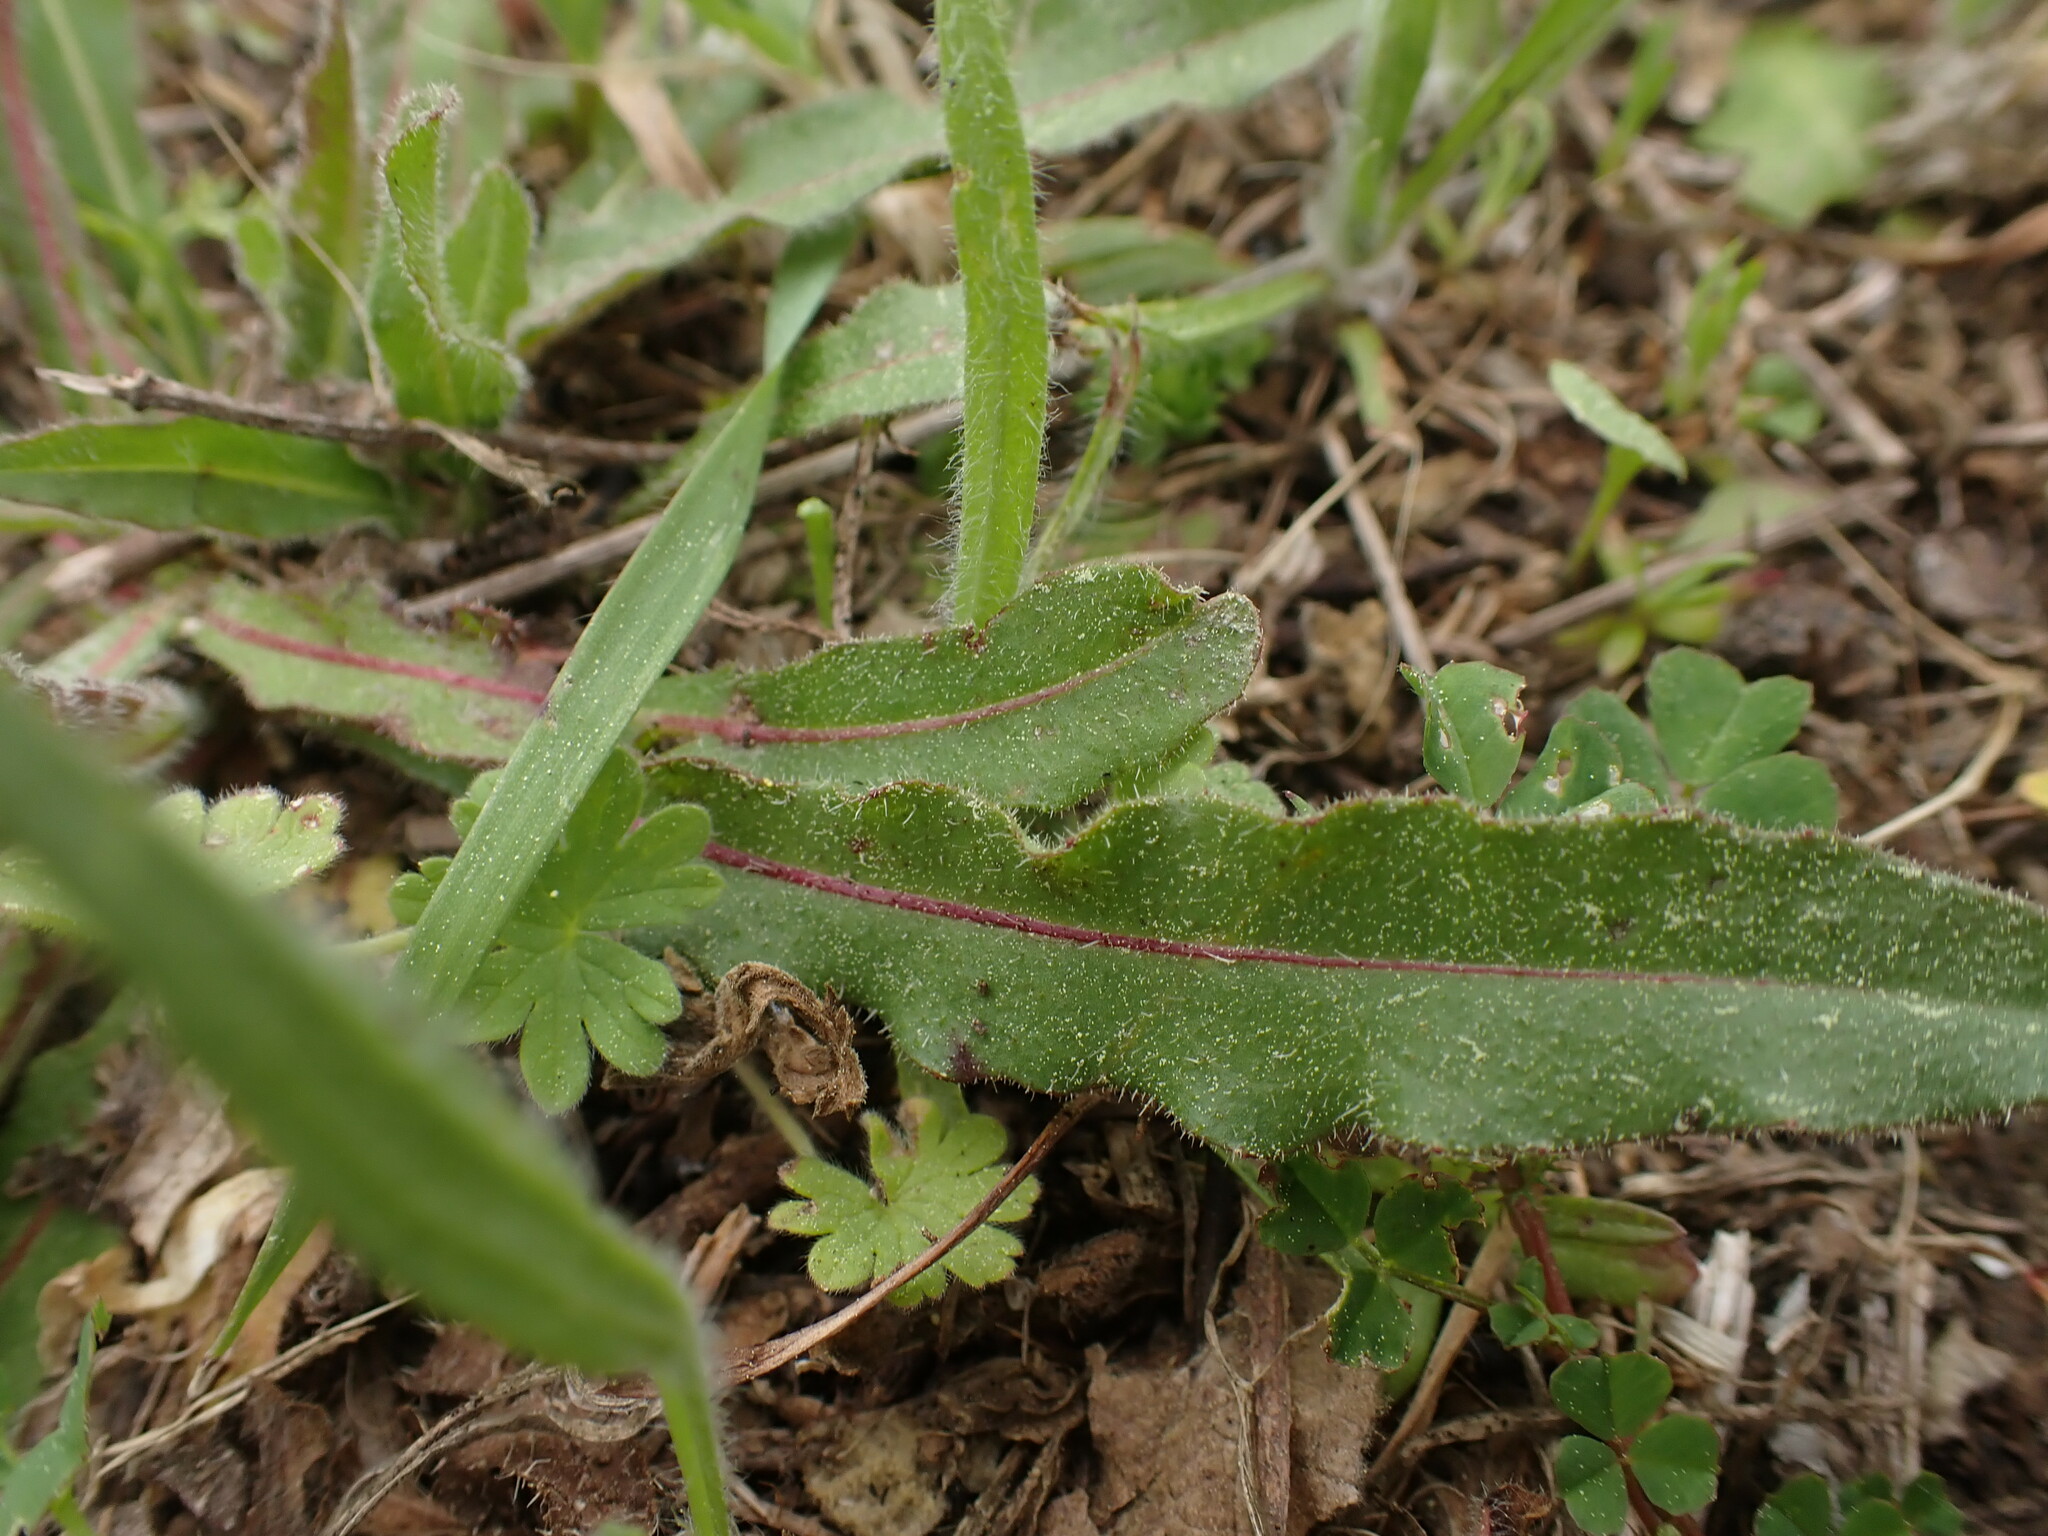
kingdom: Plantae
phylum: Tracheophyta
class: Magnoliopsida
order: Asterales
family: Asteraceae
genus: Picris
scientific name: Picris hieracioides
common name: Hawkweed oxtongue
